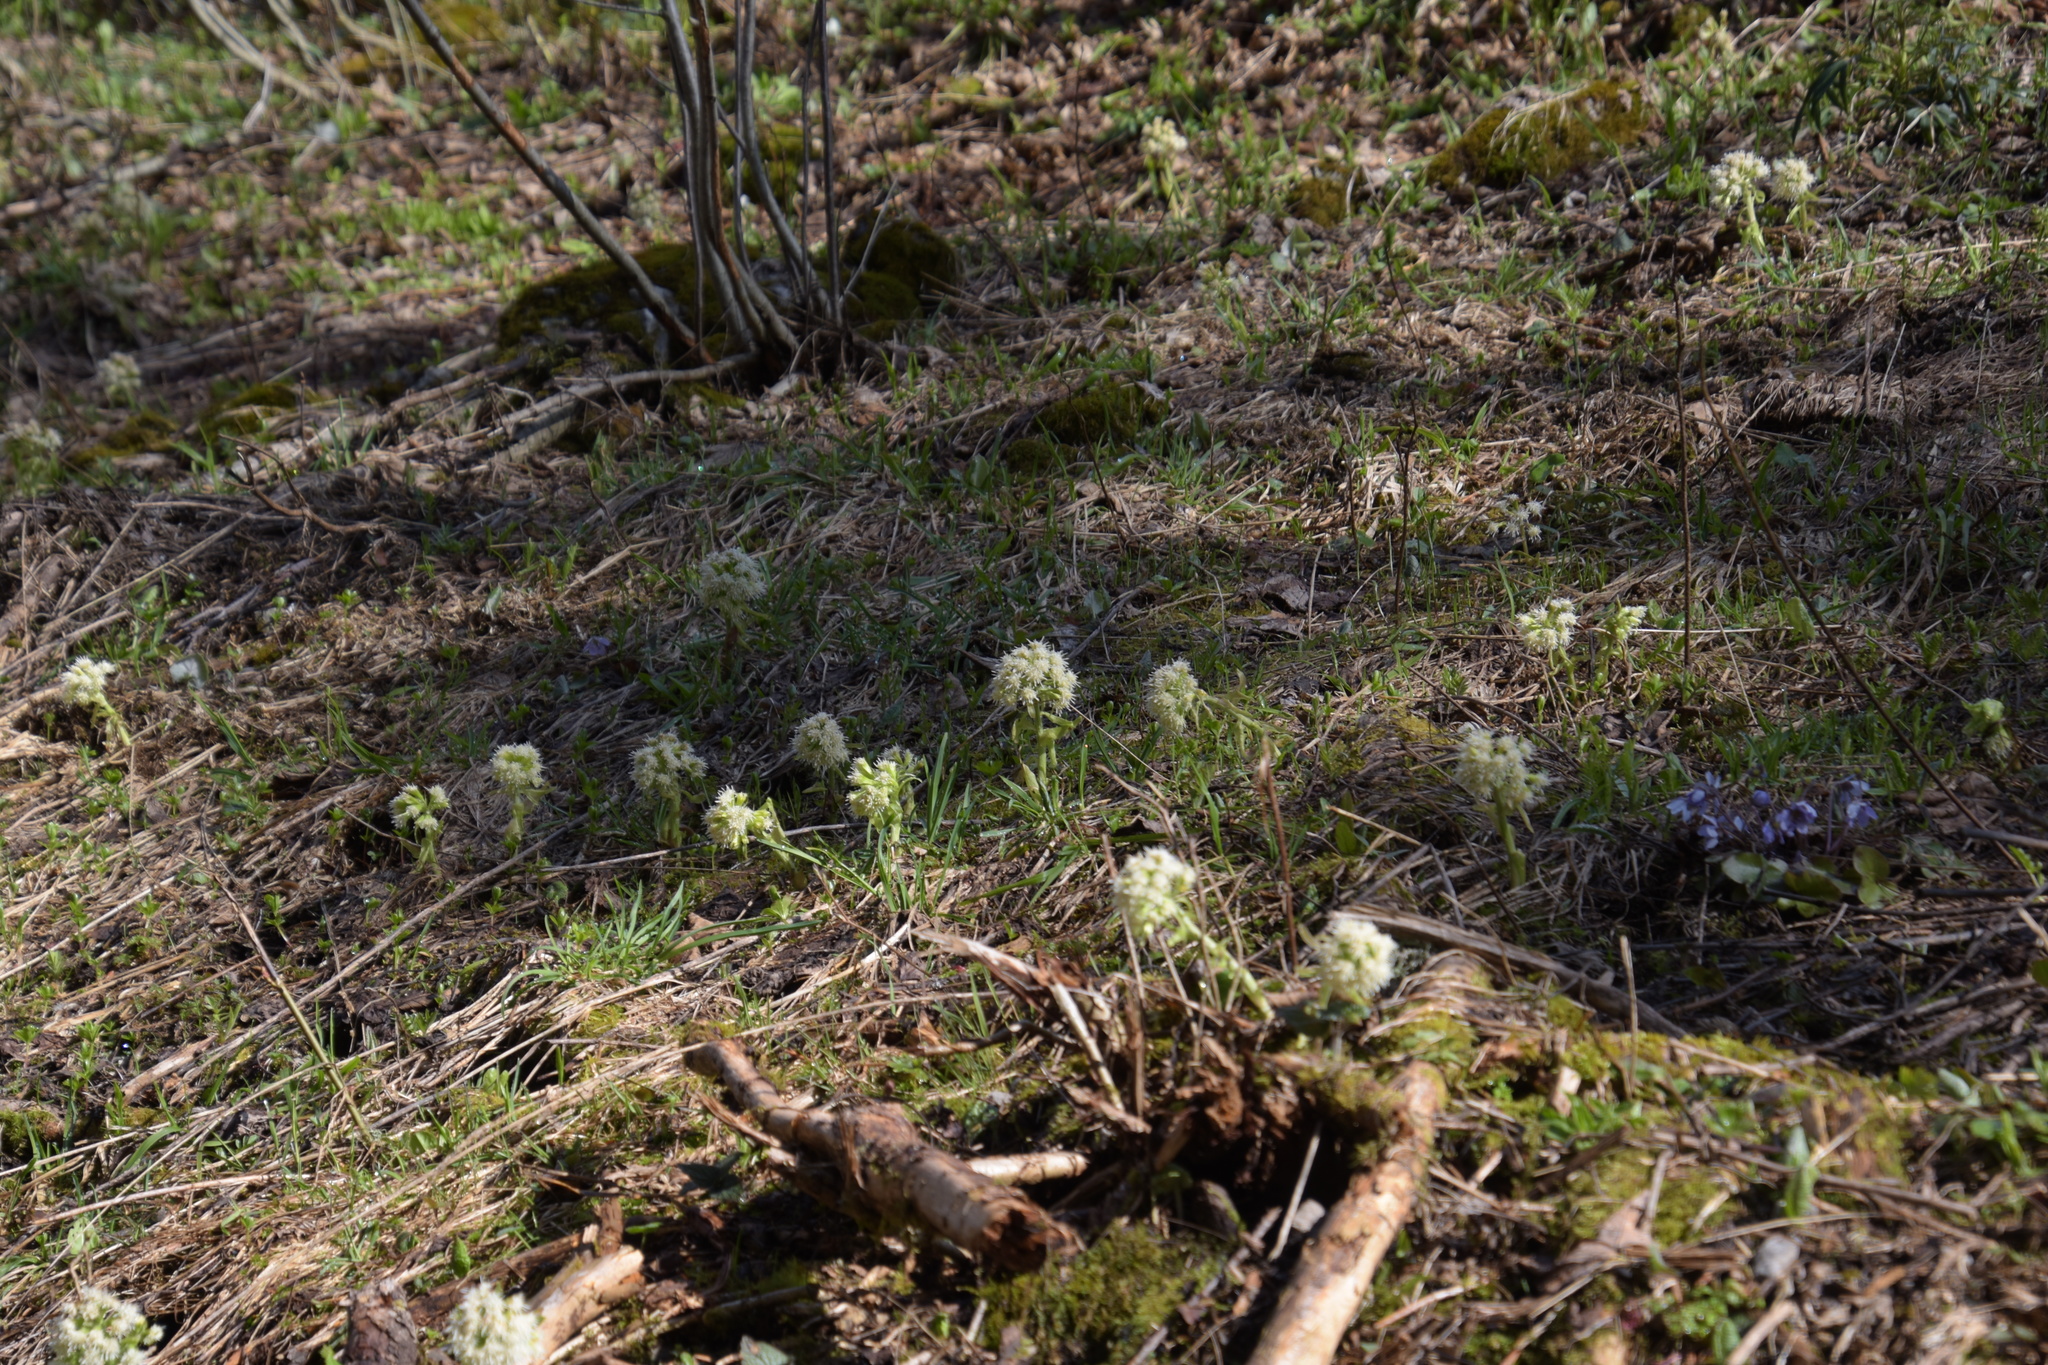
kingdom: Plantae
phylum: Tracheophyta
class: Magnoliopsida
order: Asterales
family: Asteraceae
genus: Petasites
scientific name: Petasites albus
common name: White butterbur
